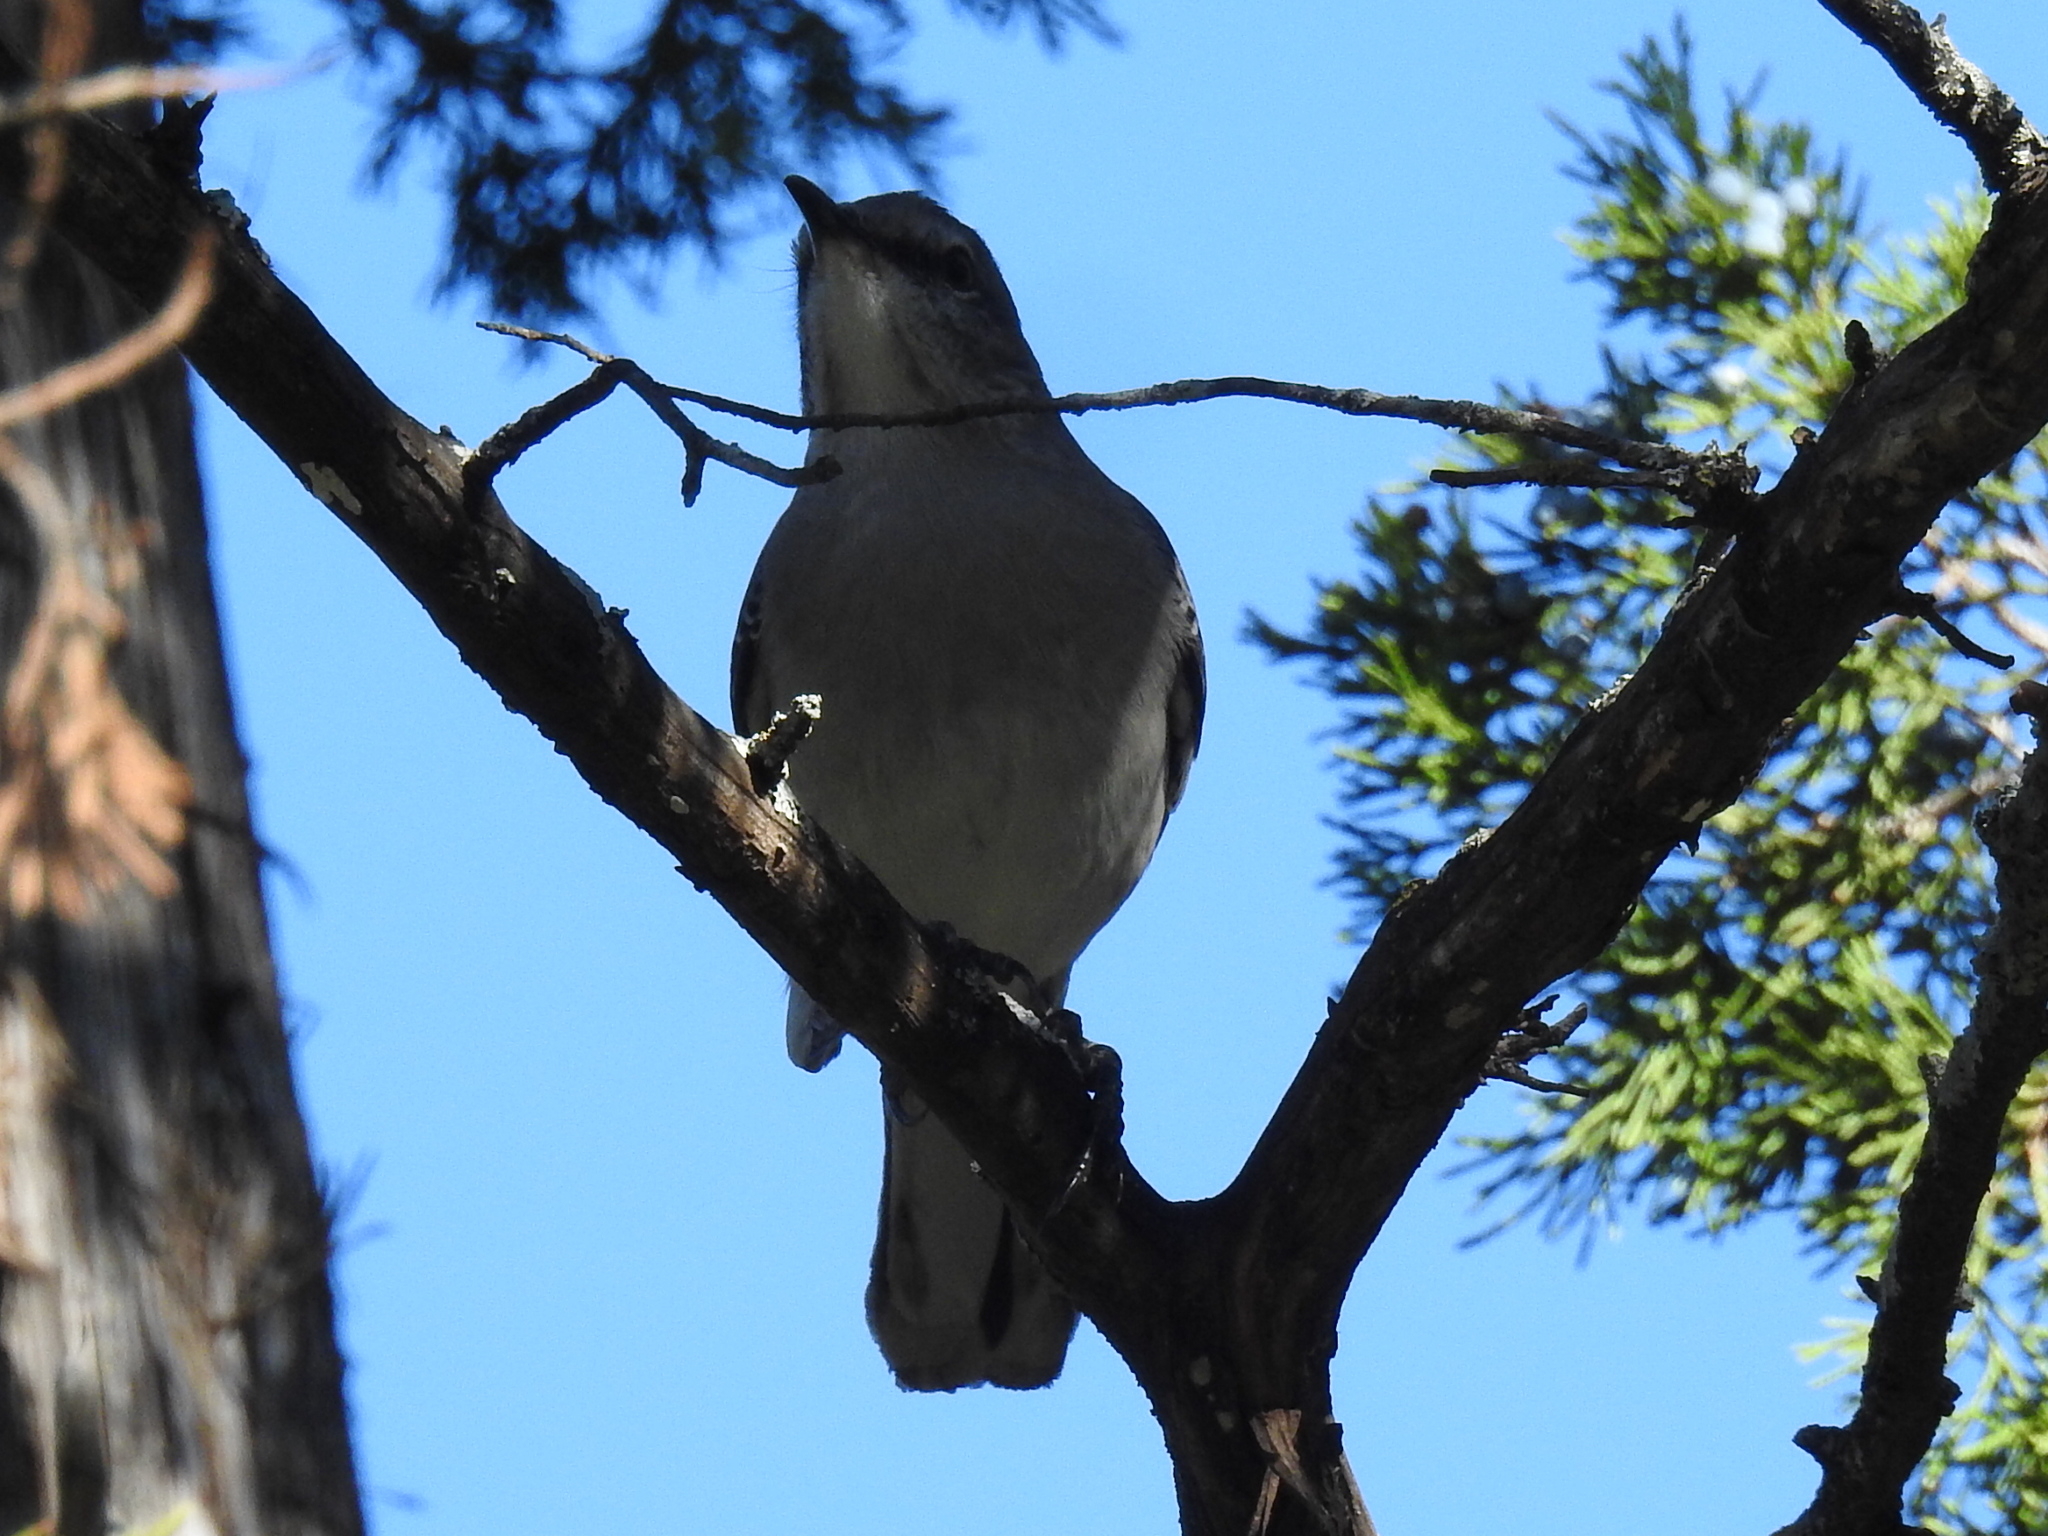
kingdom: Animalia
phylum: Chordata
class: Aves
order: Passeriformes
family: Mimidae
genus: Mimus
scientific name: Mimus polyglottos
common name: Northern mockingbird
